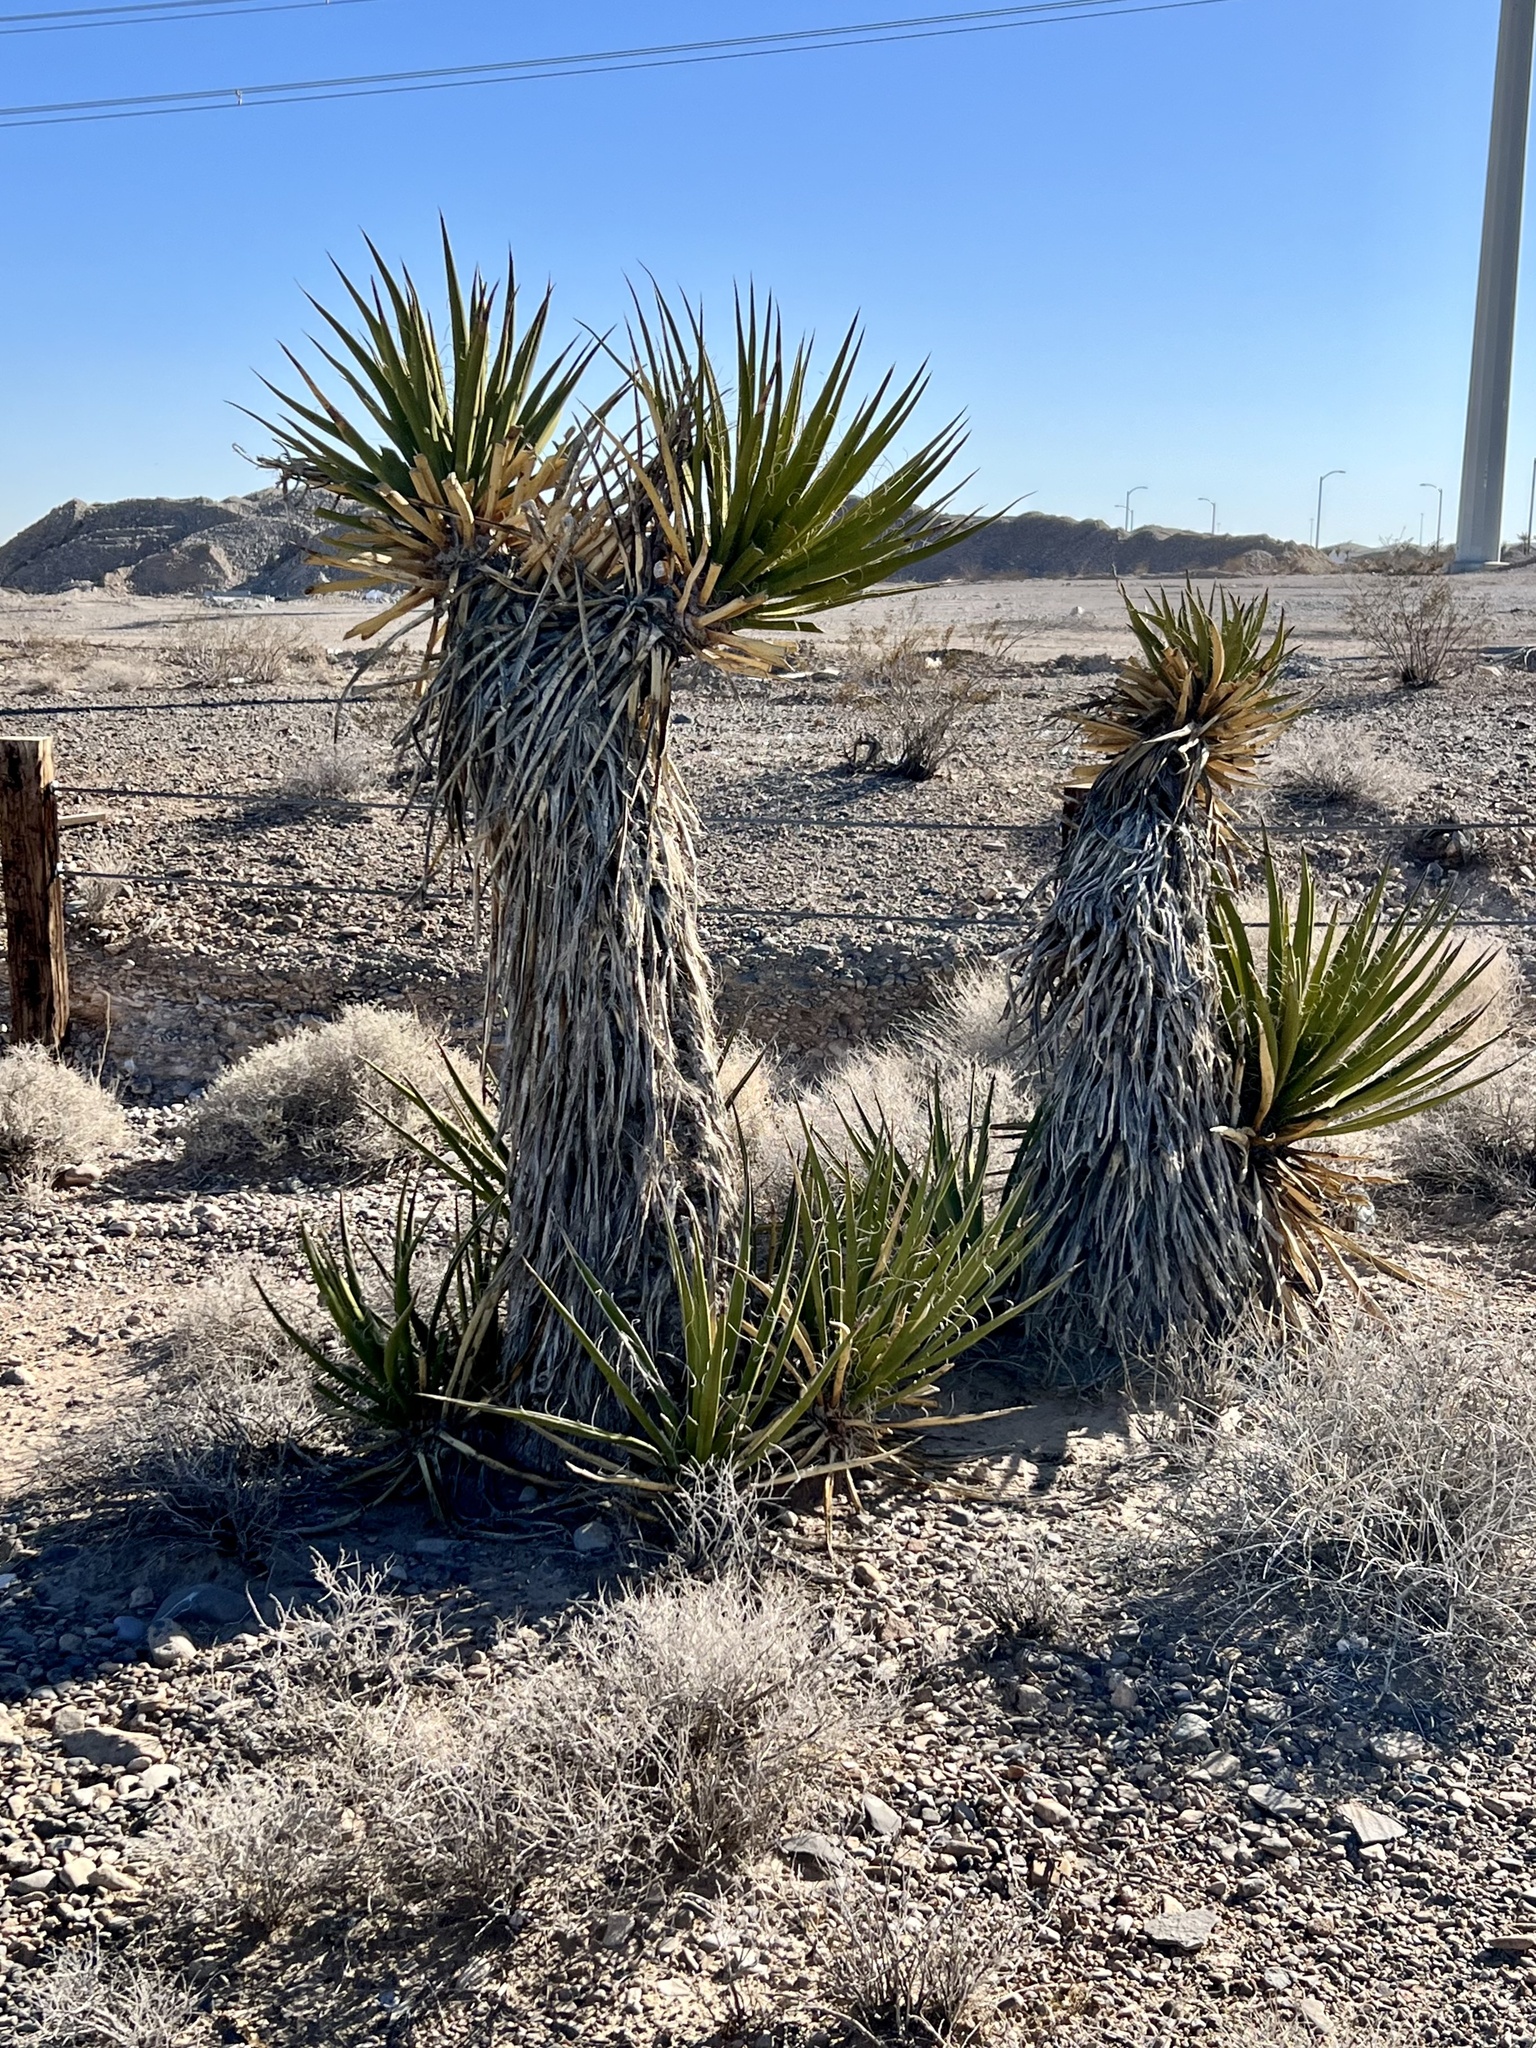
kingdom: Plantae
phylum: Tracheophyta
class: Liliopsida
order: Asparagales
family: Asparagaceae
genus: Yucca
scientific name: Yucca schidigera
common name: Mojave yucca
